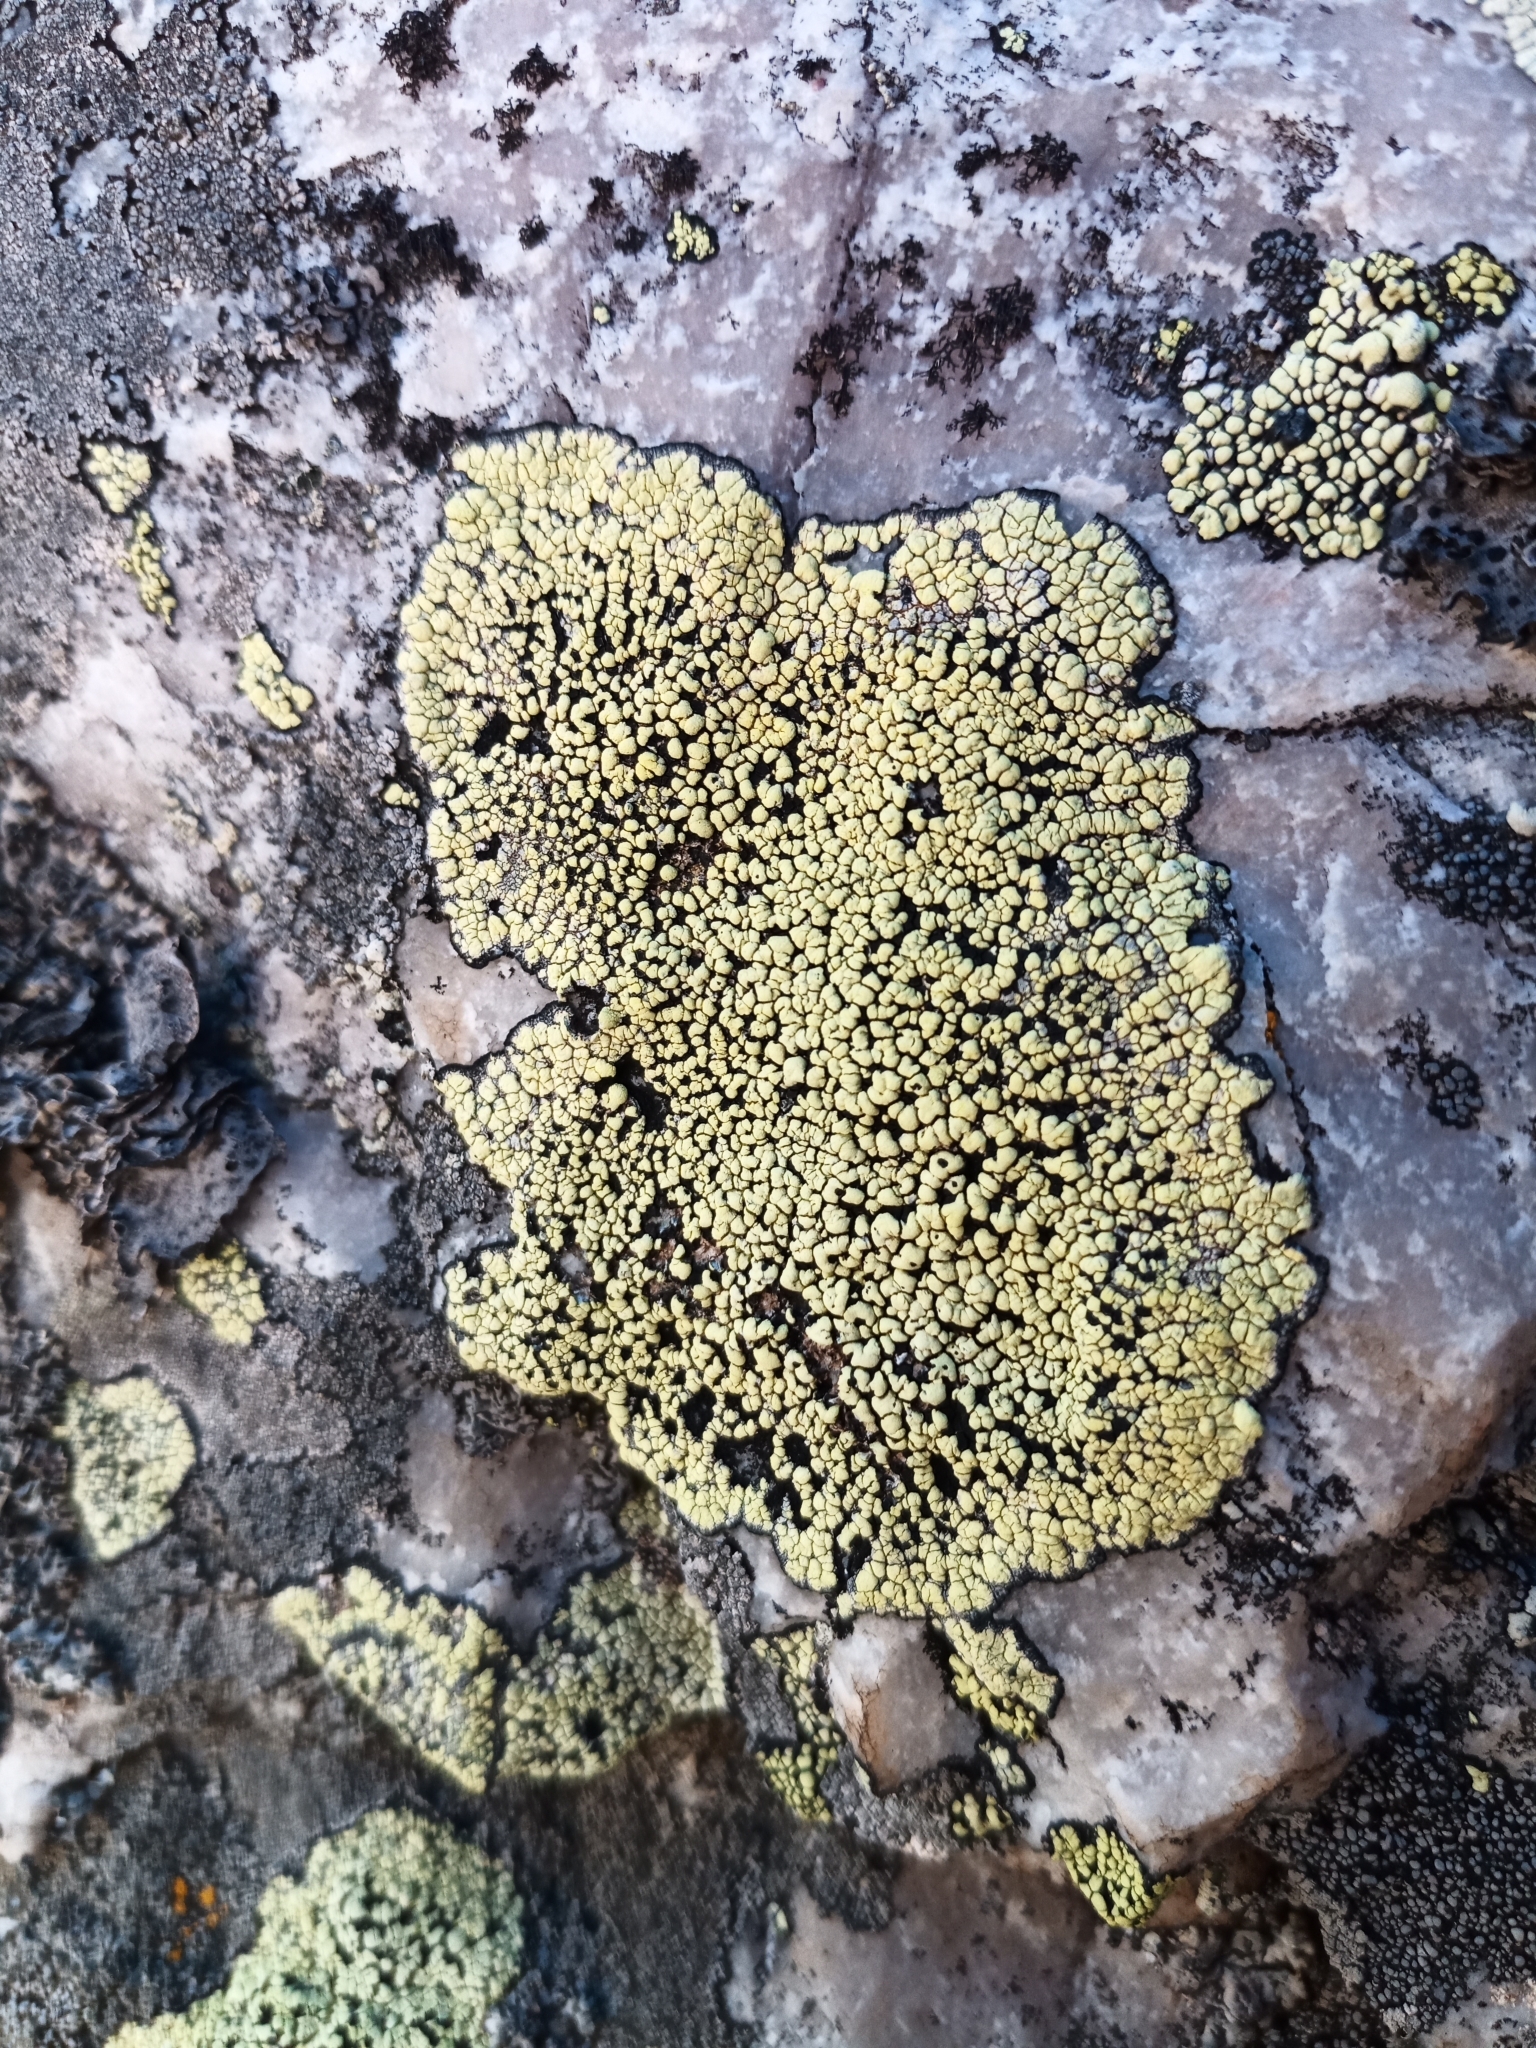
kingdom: Fungi
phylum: Ascomycota
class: Lecanoromycetes
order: Rhizocarpales
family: Rhizocarpaceae
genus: Rhizocarpon
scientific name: Rhizocarpon geographicum
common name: Yellow map lichen
